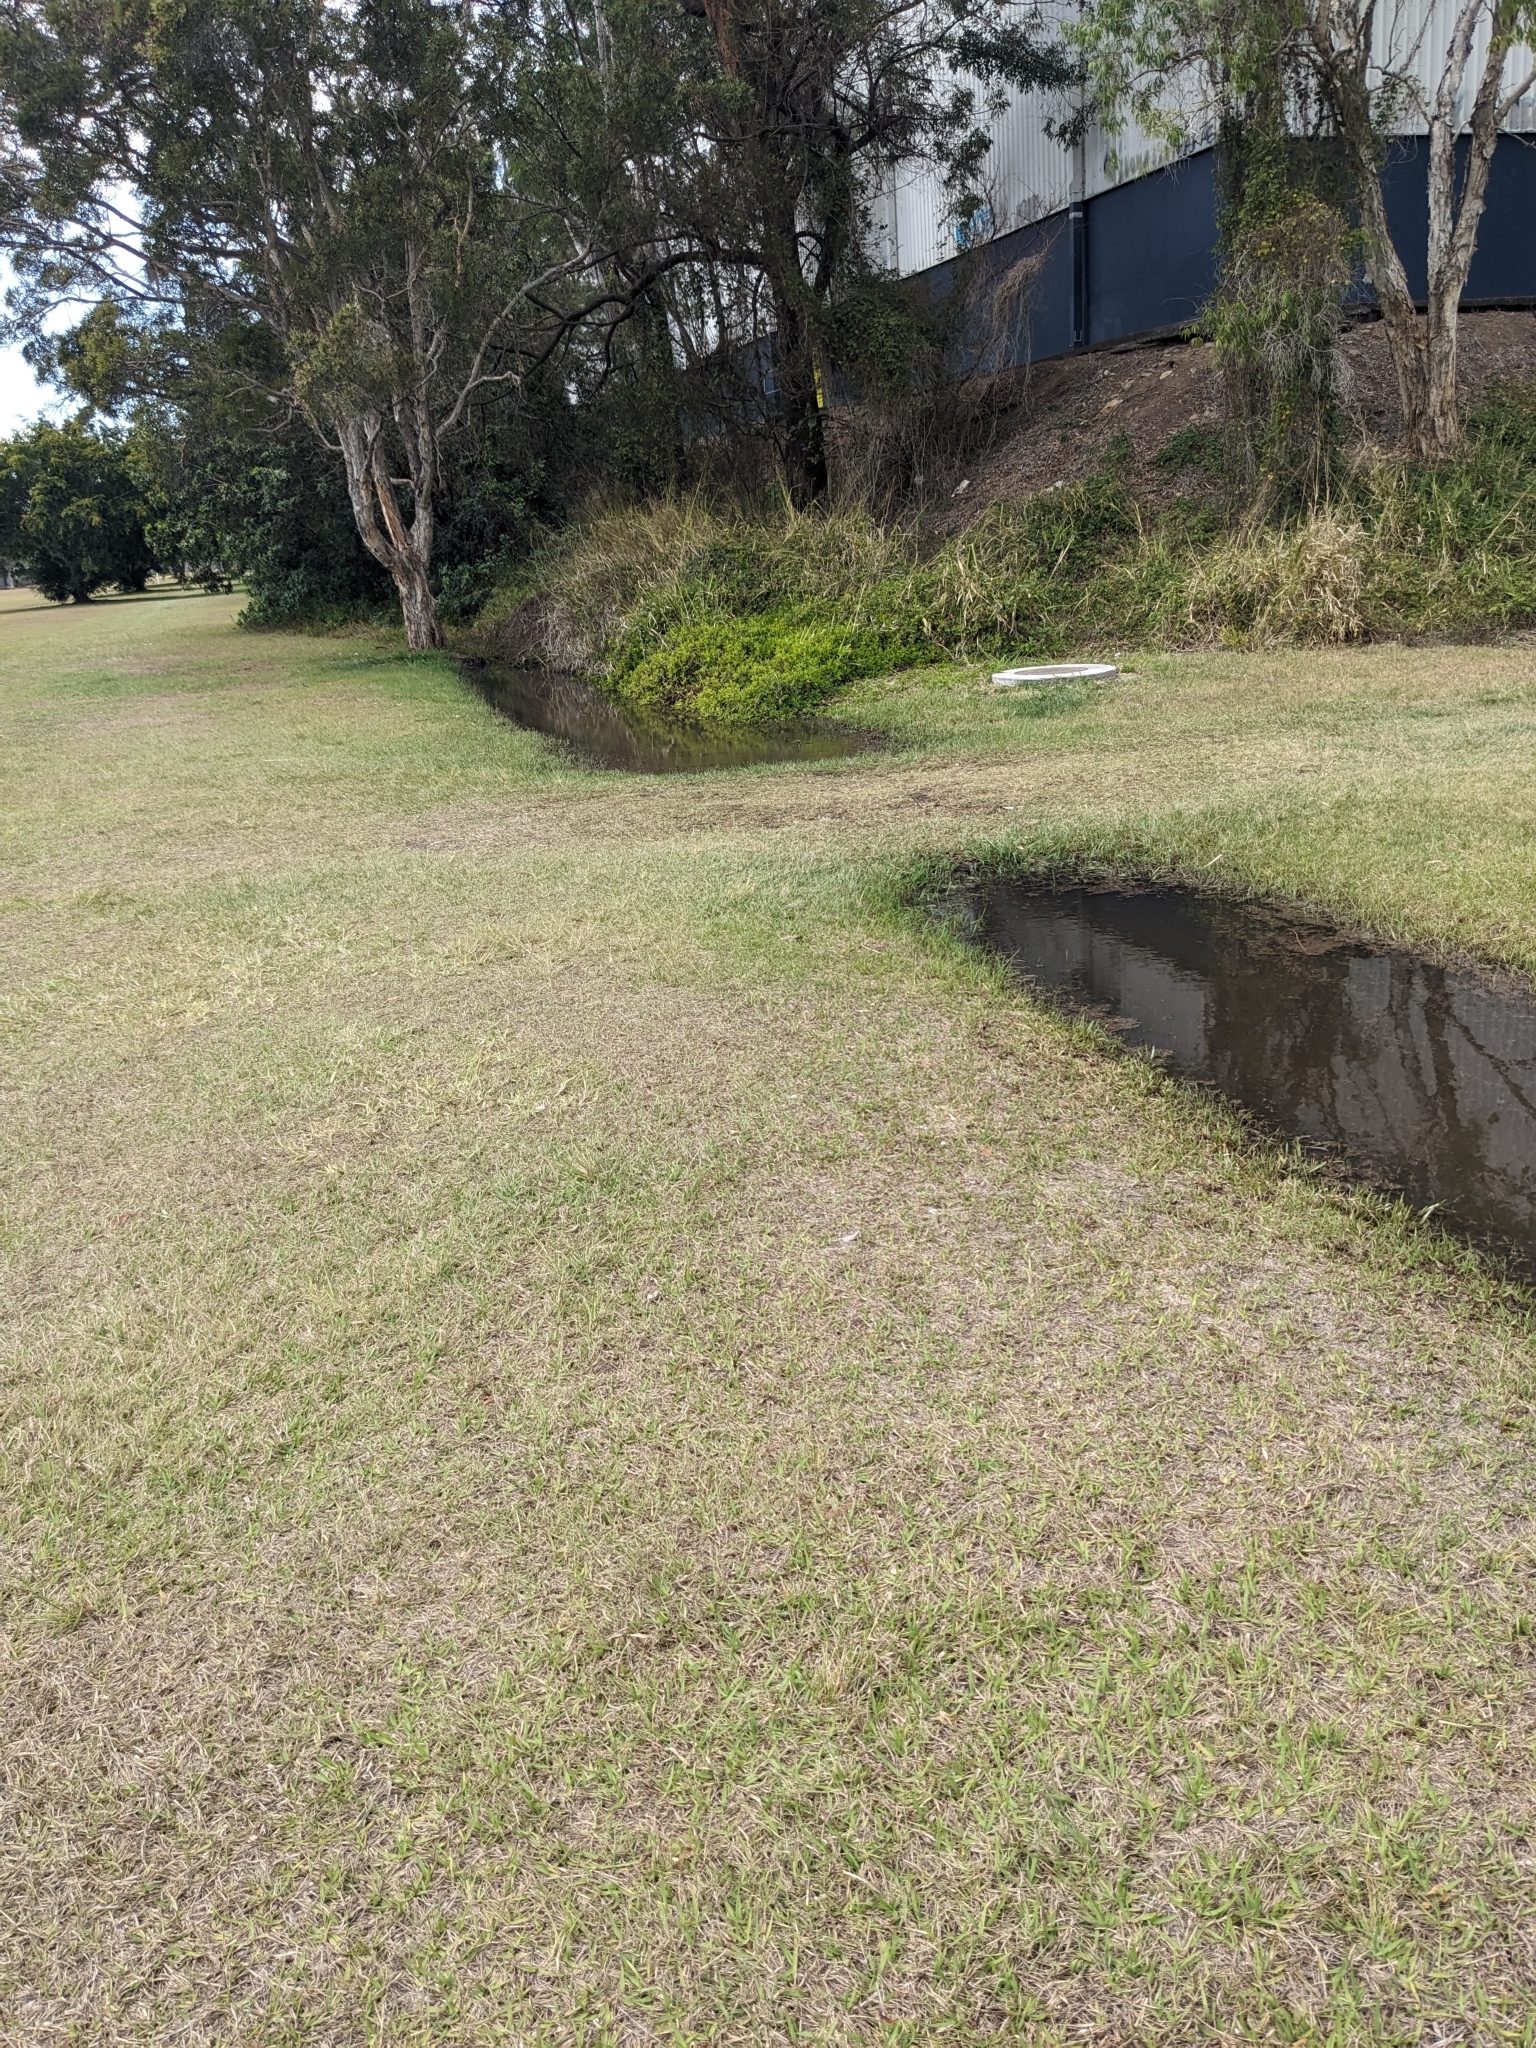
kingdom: Animalia
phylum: Chordata
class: Amphibia
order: Anura
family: Limnodynastidae
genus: Limnodynastes
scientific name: Limnodynastes peronii
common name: Brown frog
